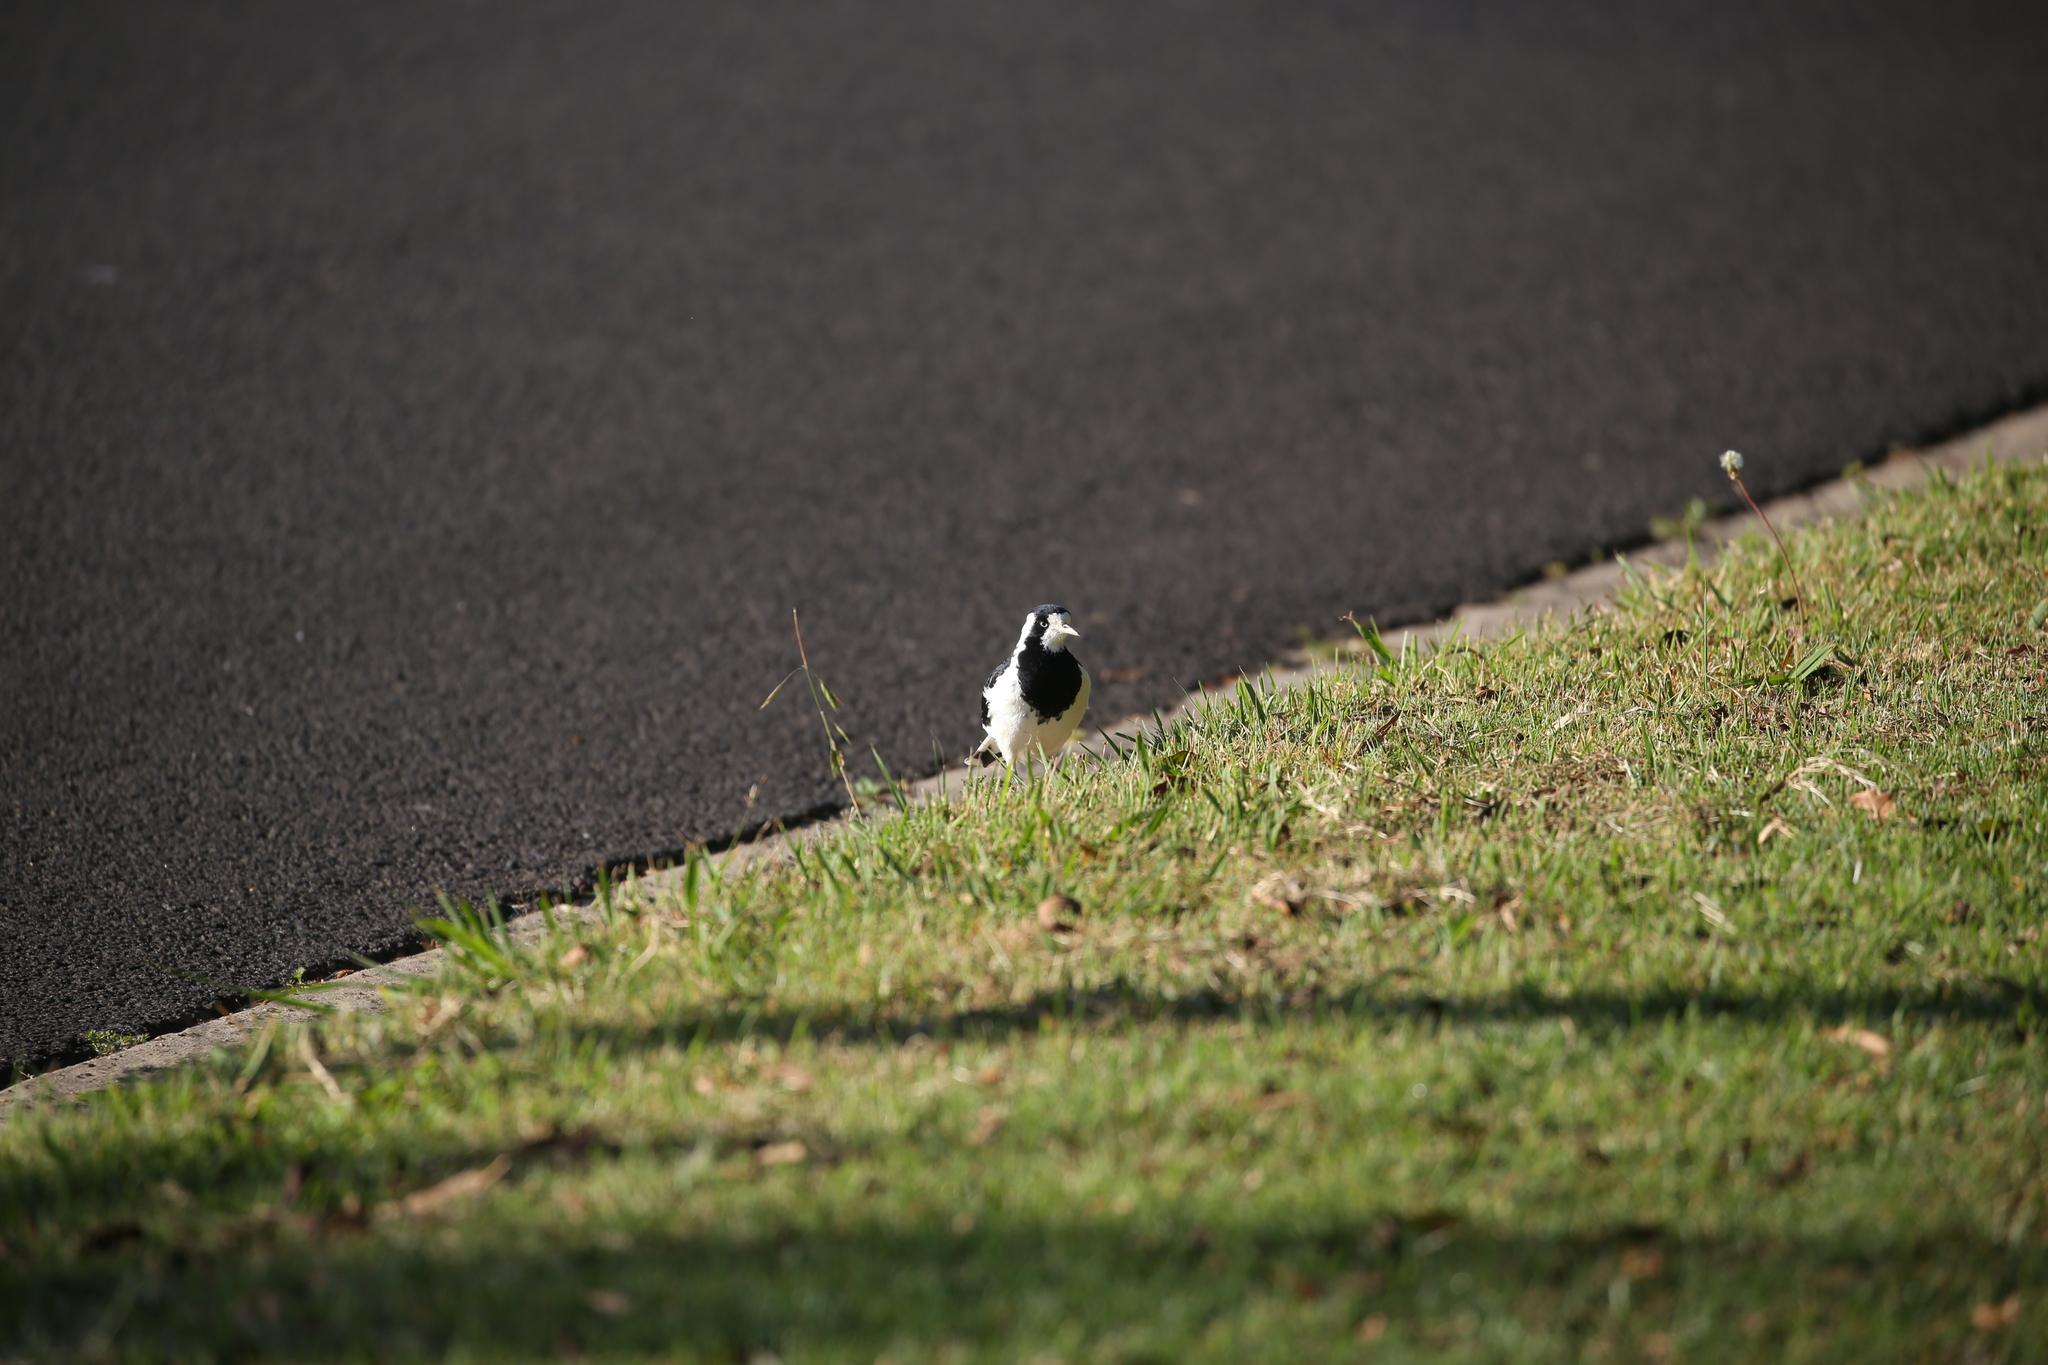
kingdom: Animalia
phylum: Chordata
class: Aves
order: Passeriformes
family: Monarchidae
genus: Grallina
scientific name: Grallina cyanoleuca
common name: Magpie-lark
